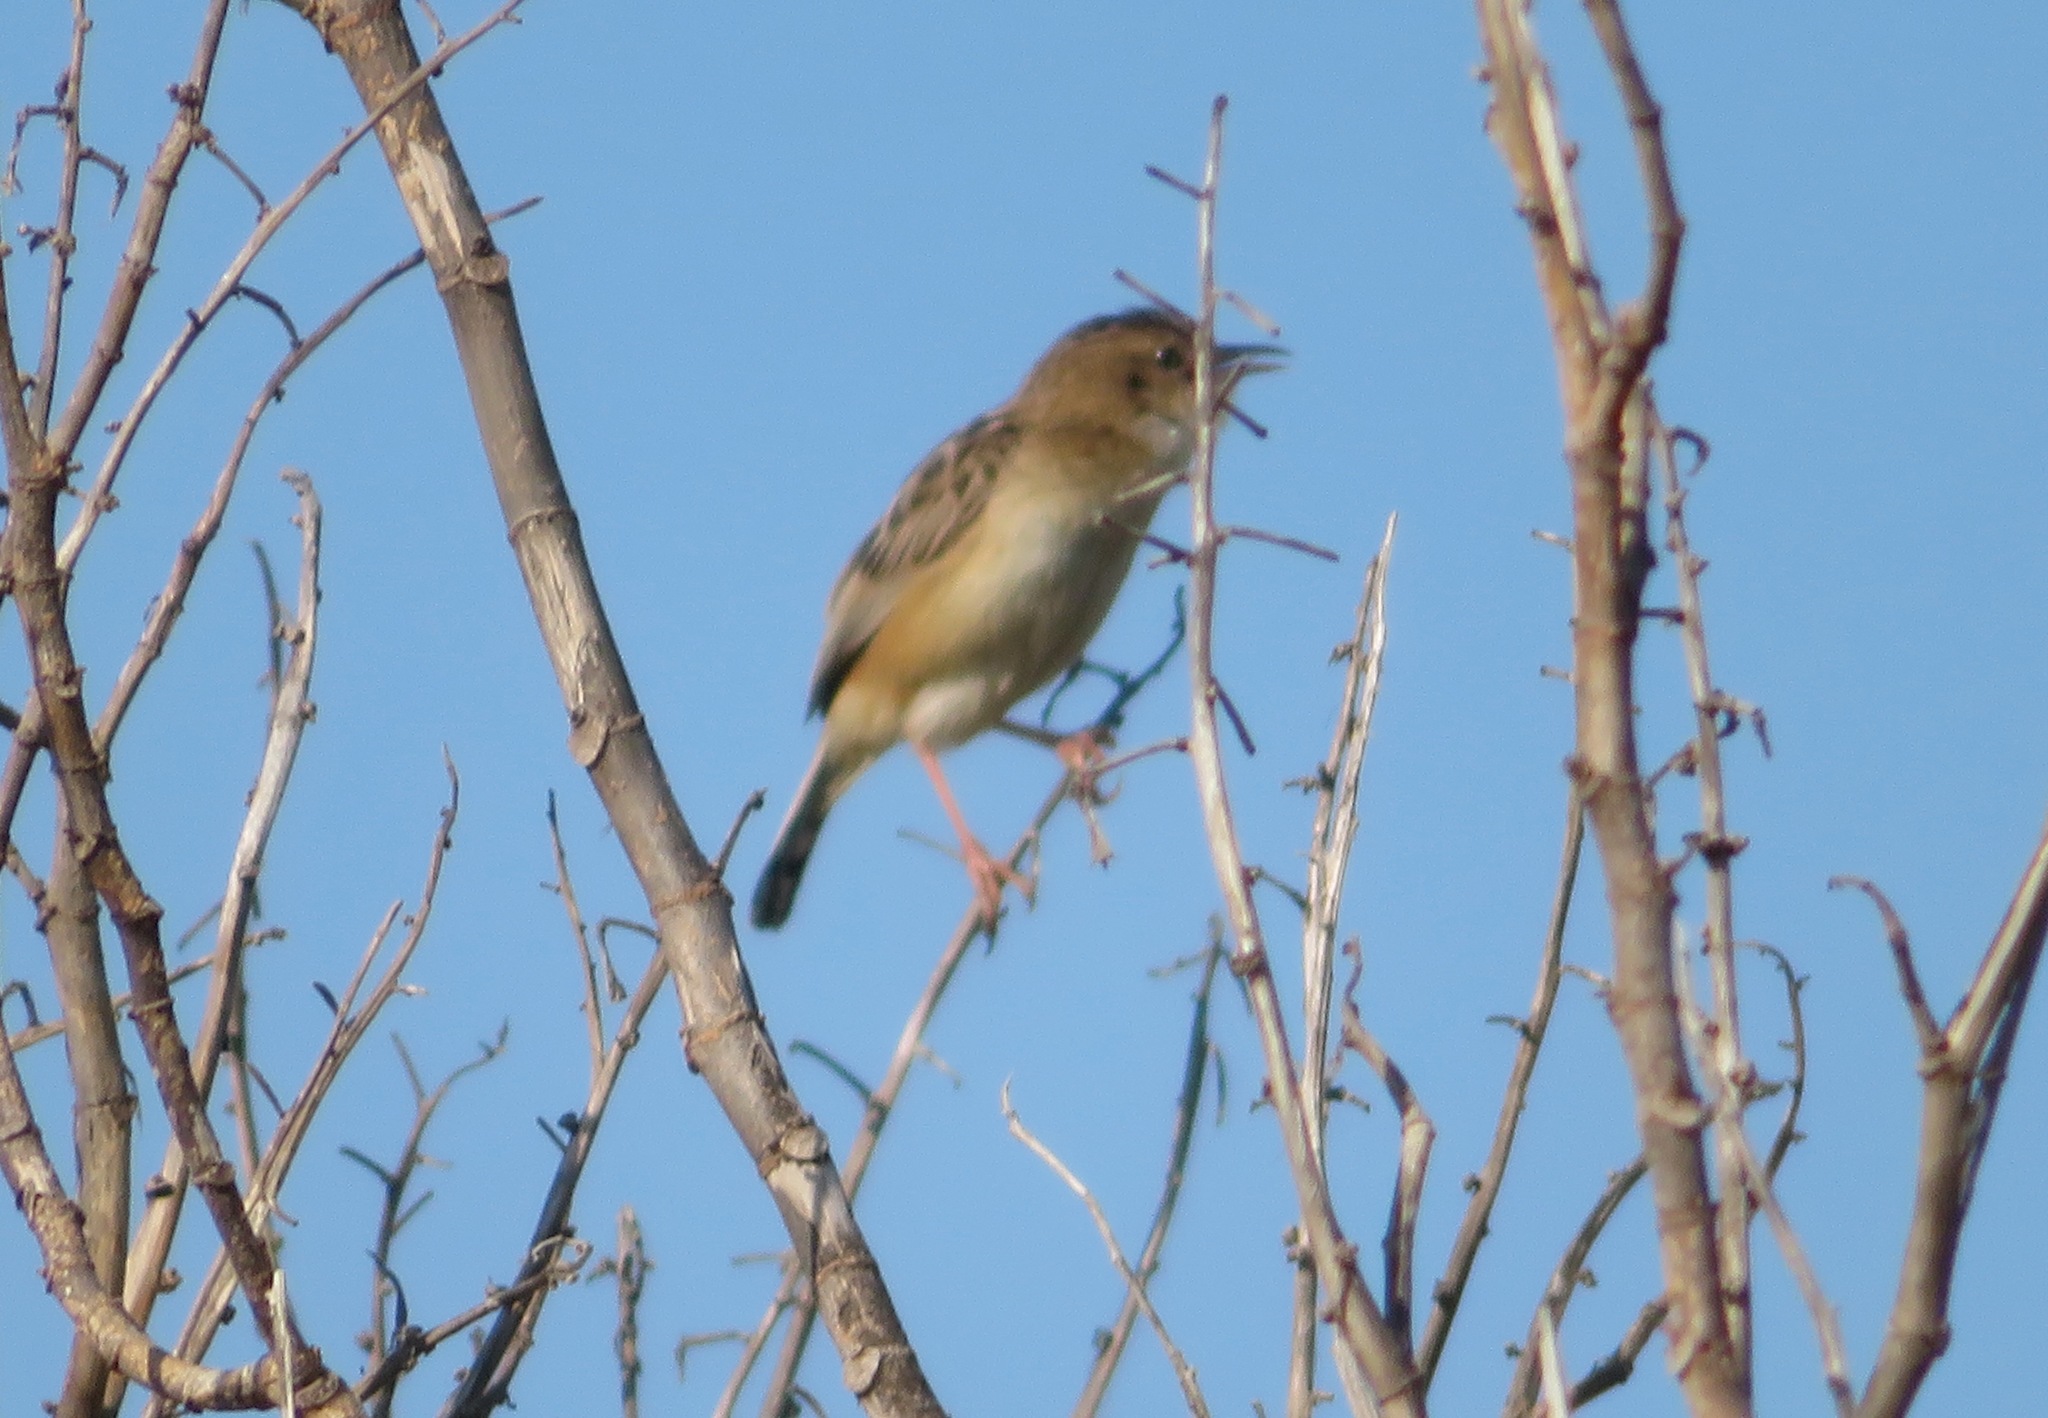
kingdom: Animalia
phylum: Chordata
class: Aves
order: Passeriformes
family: Cisticolidae
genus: Cisticola
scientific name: Cisticola juncidis
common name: Zitting cisticola
